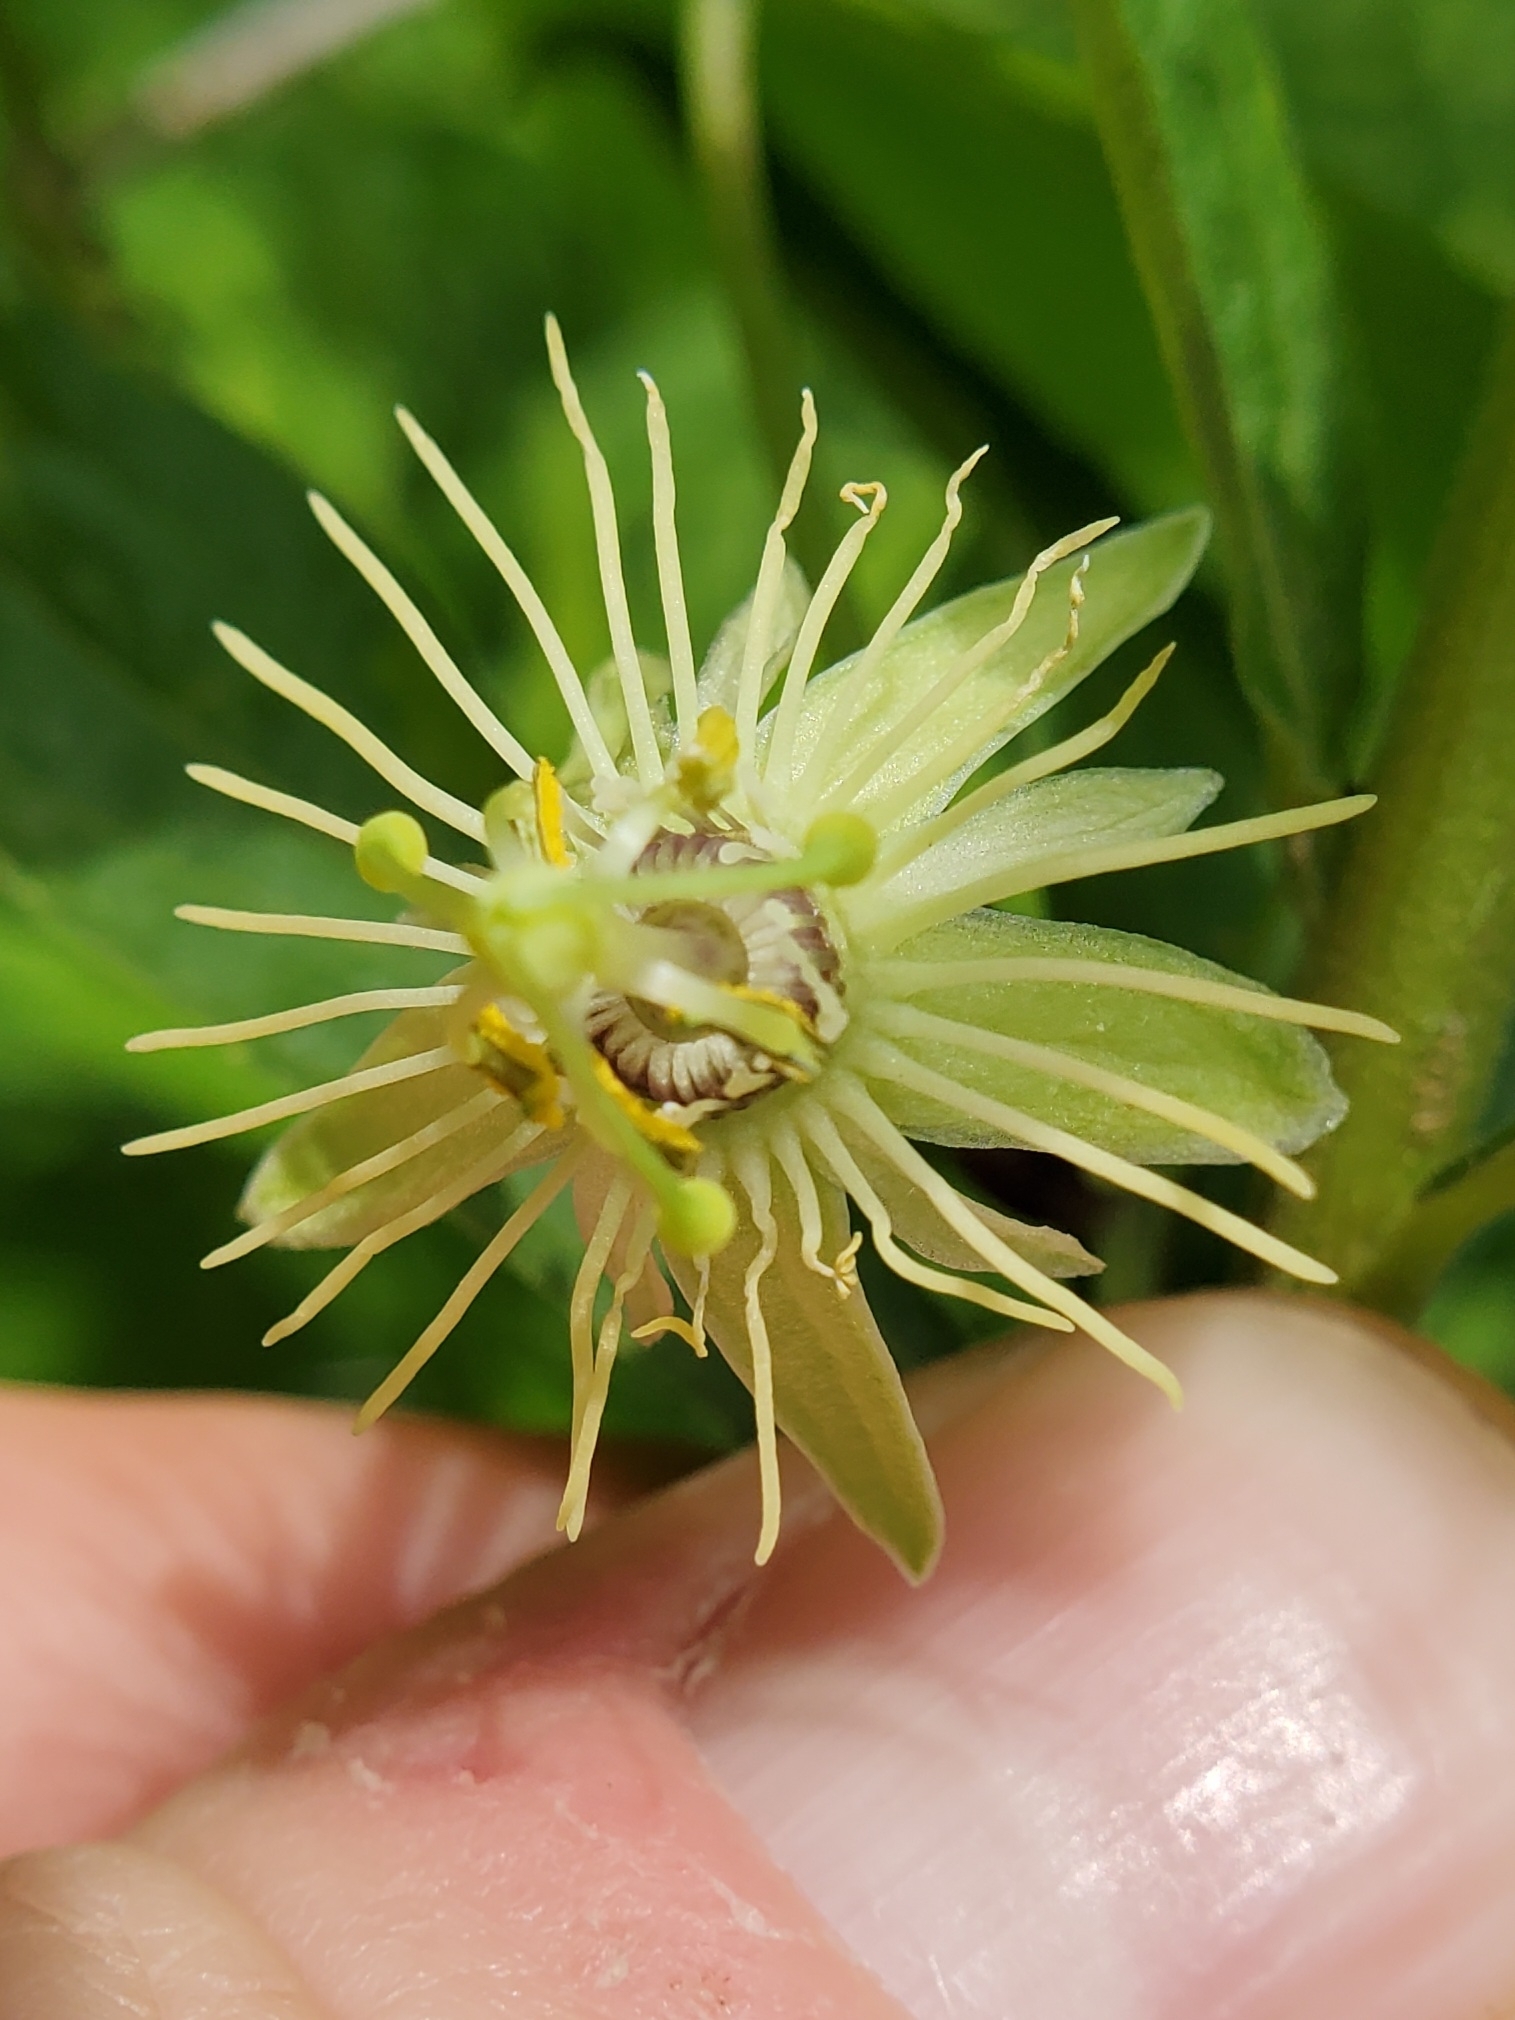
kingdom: Plantae
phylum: Tracheophyta
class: Magnoliopsida
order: Malpighiales
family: Passifloraceae
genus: Passiflora
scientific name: Passiflora lutea
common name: Yellow passionflower
